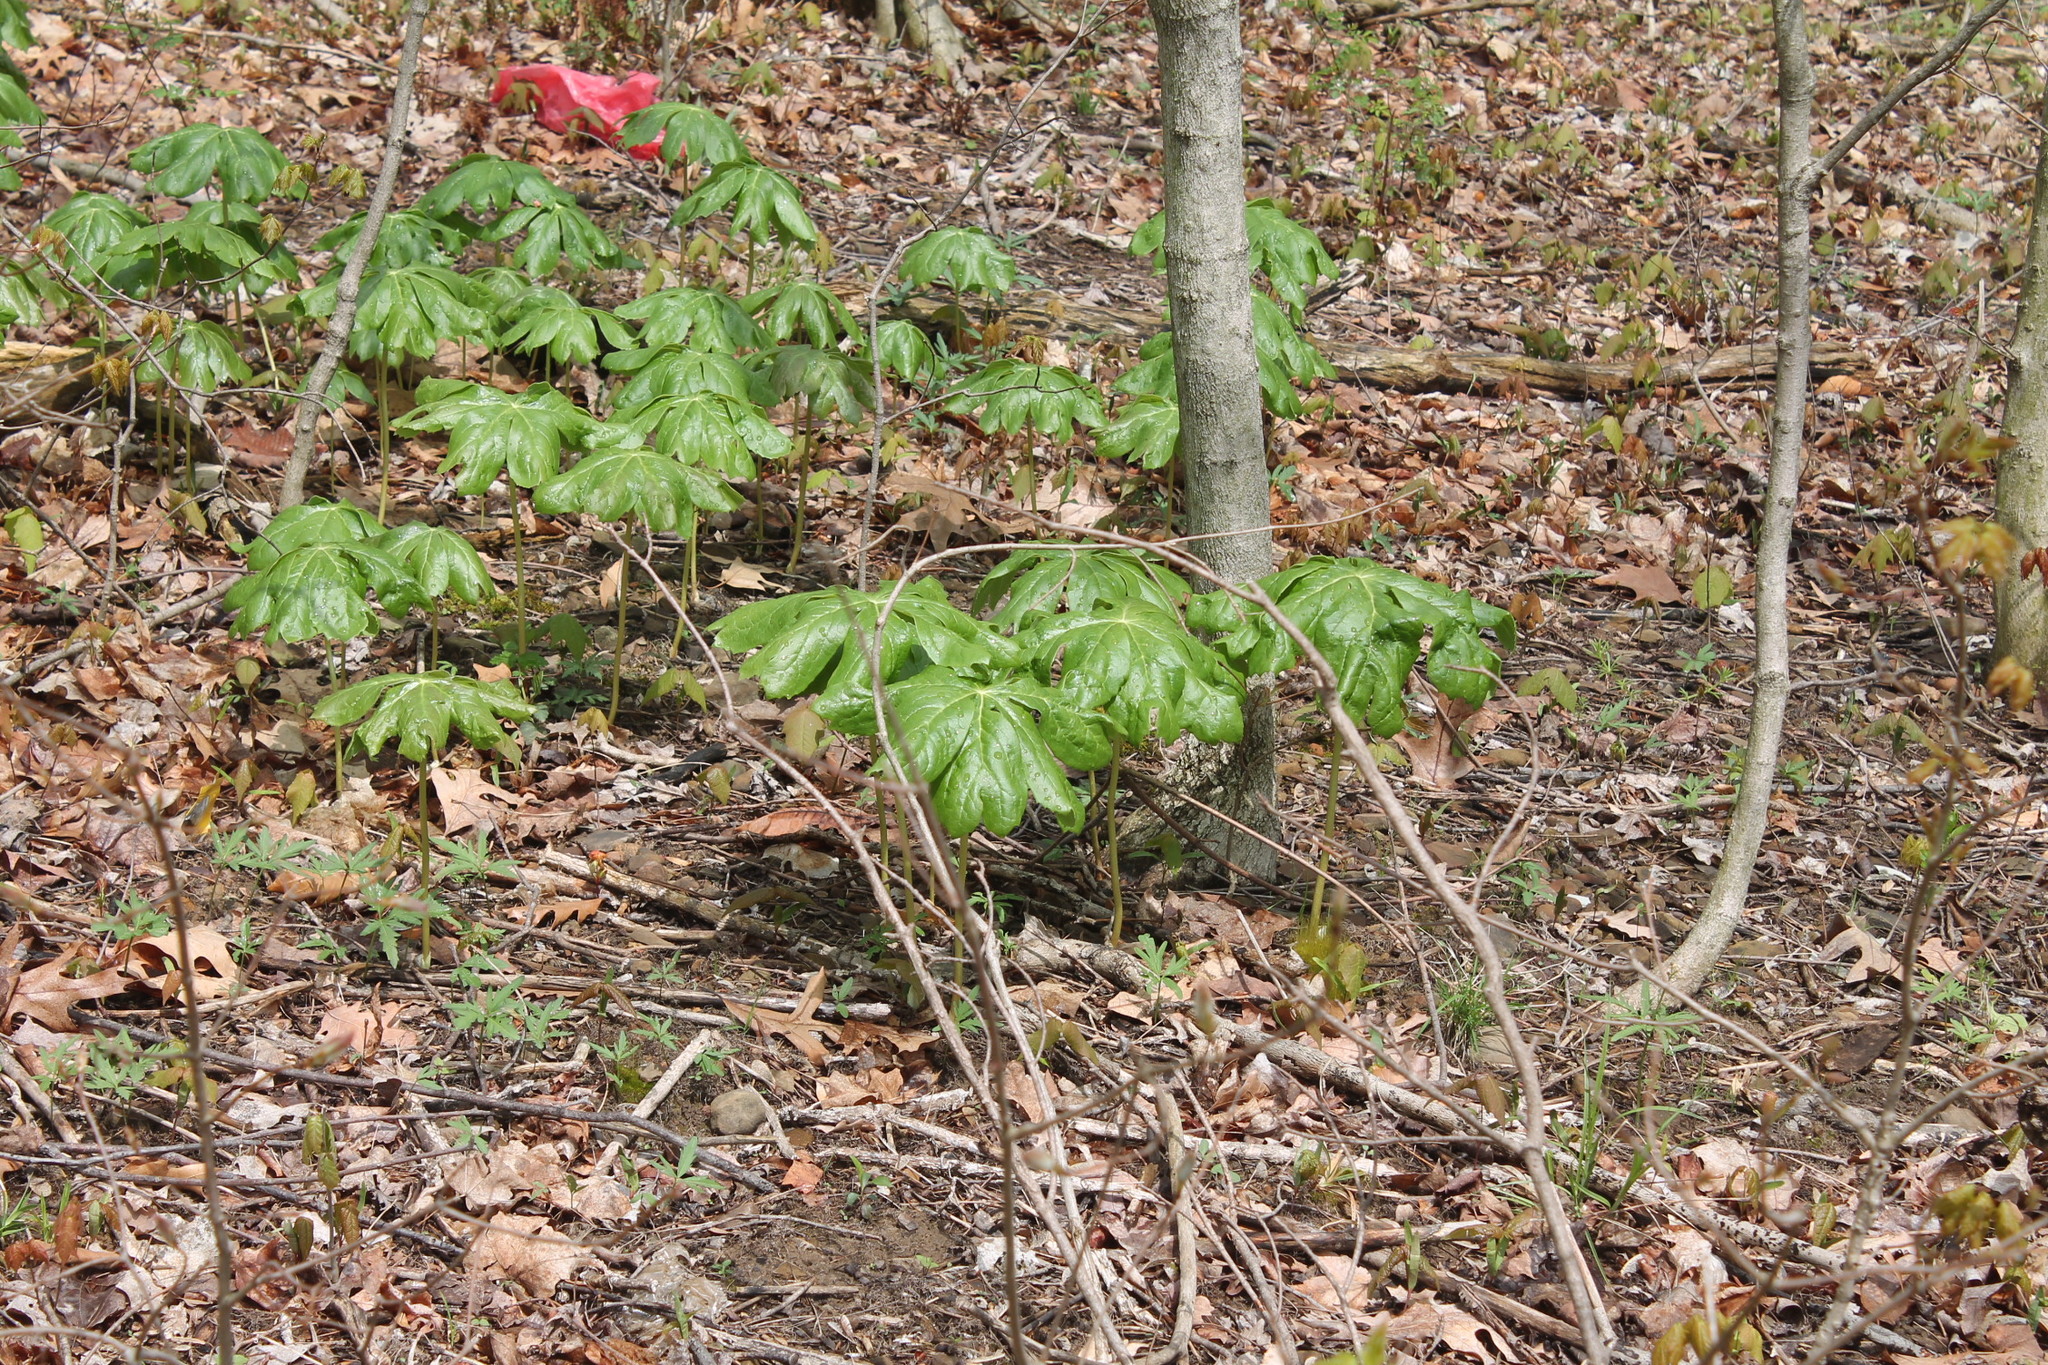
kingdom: Plantae
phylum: Tracheophyta
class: Magnoliopsida
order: Ranunculales
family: Berberidaceae
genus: Podophyllum
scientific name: Podophyllum peltatum
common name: Wild mandrake
